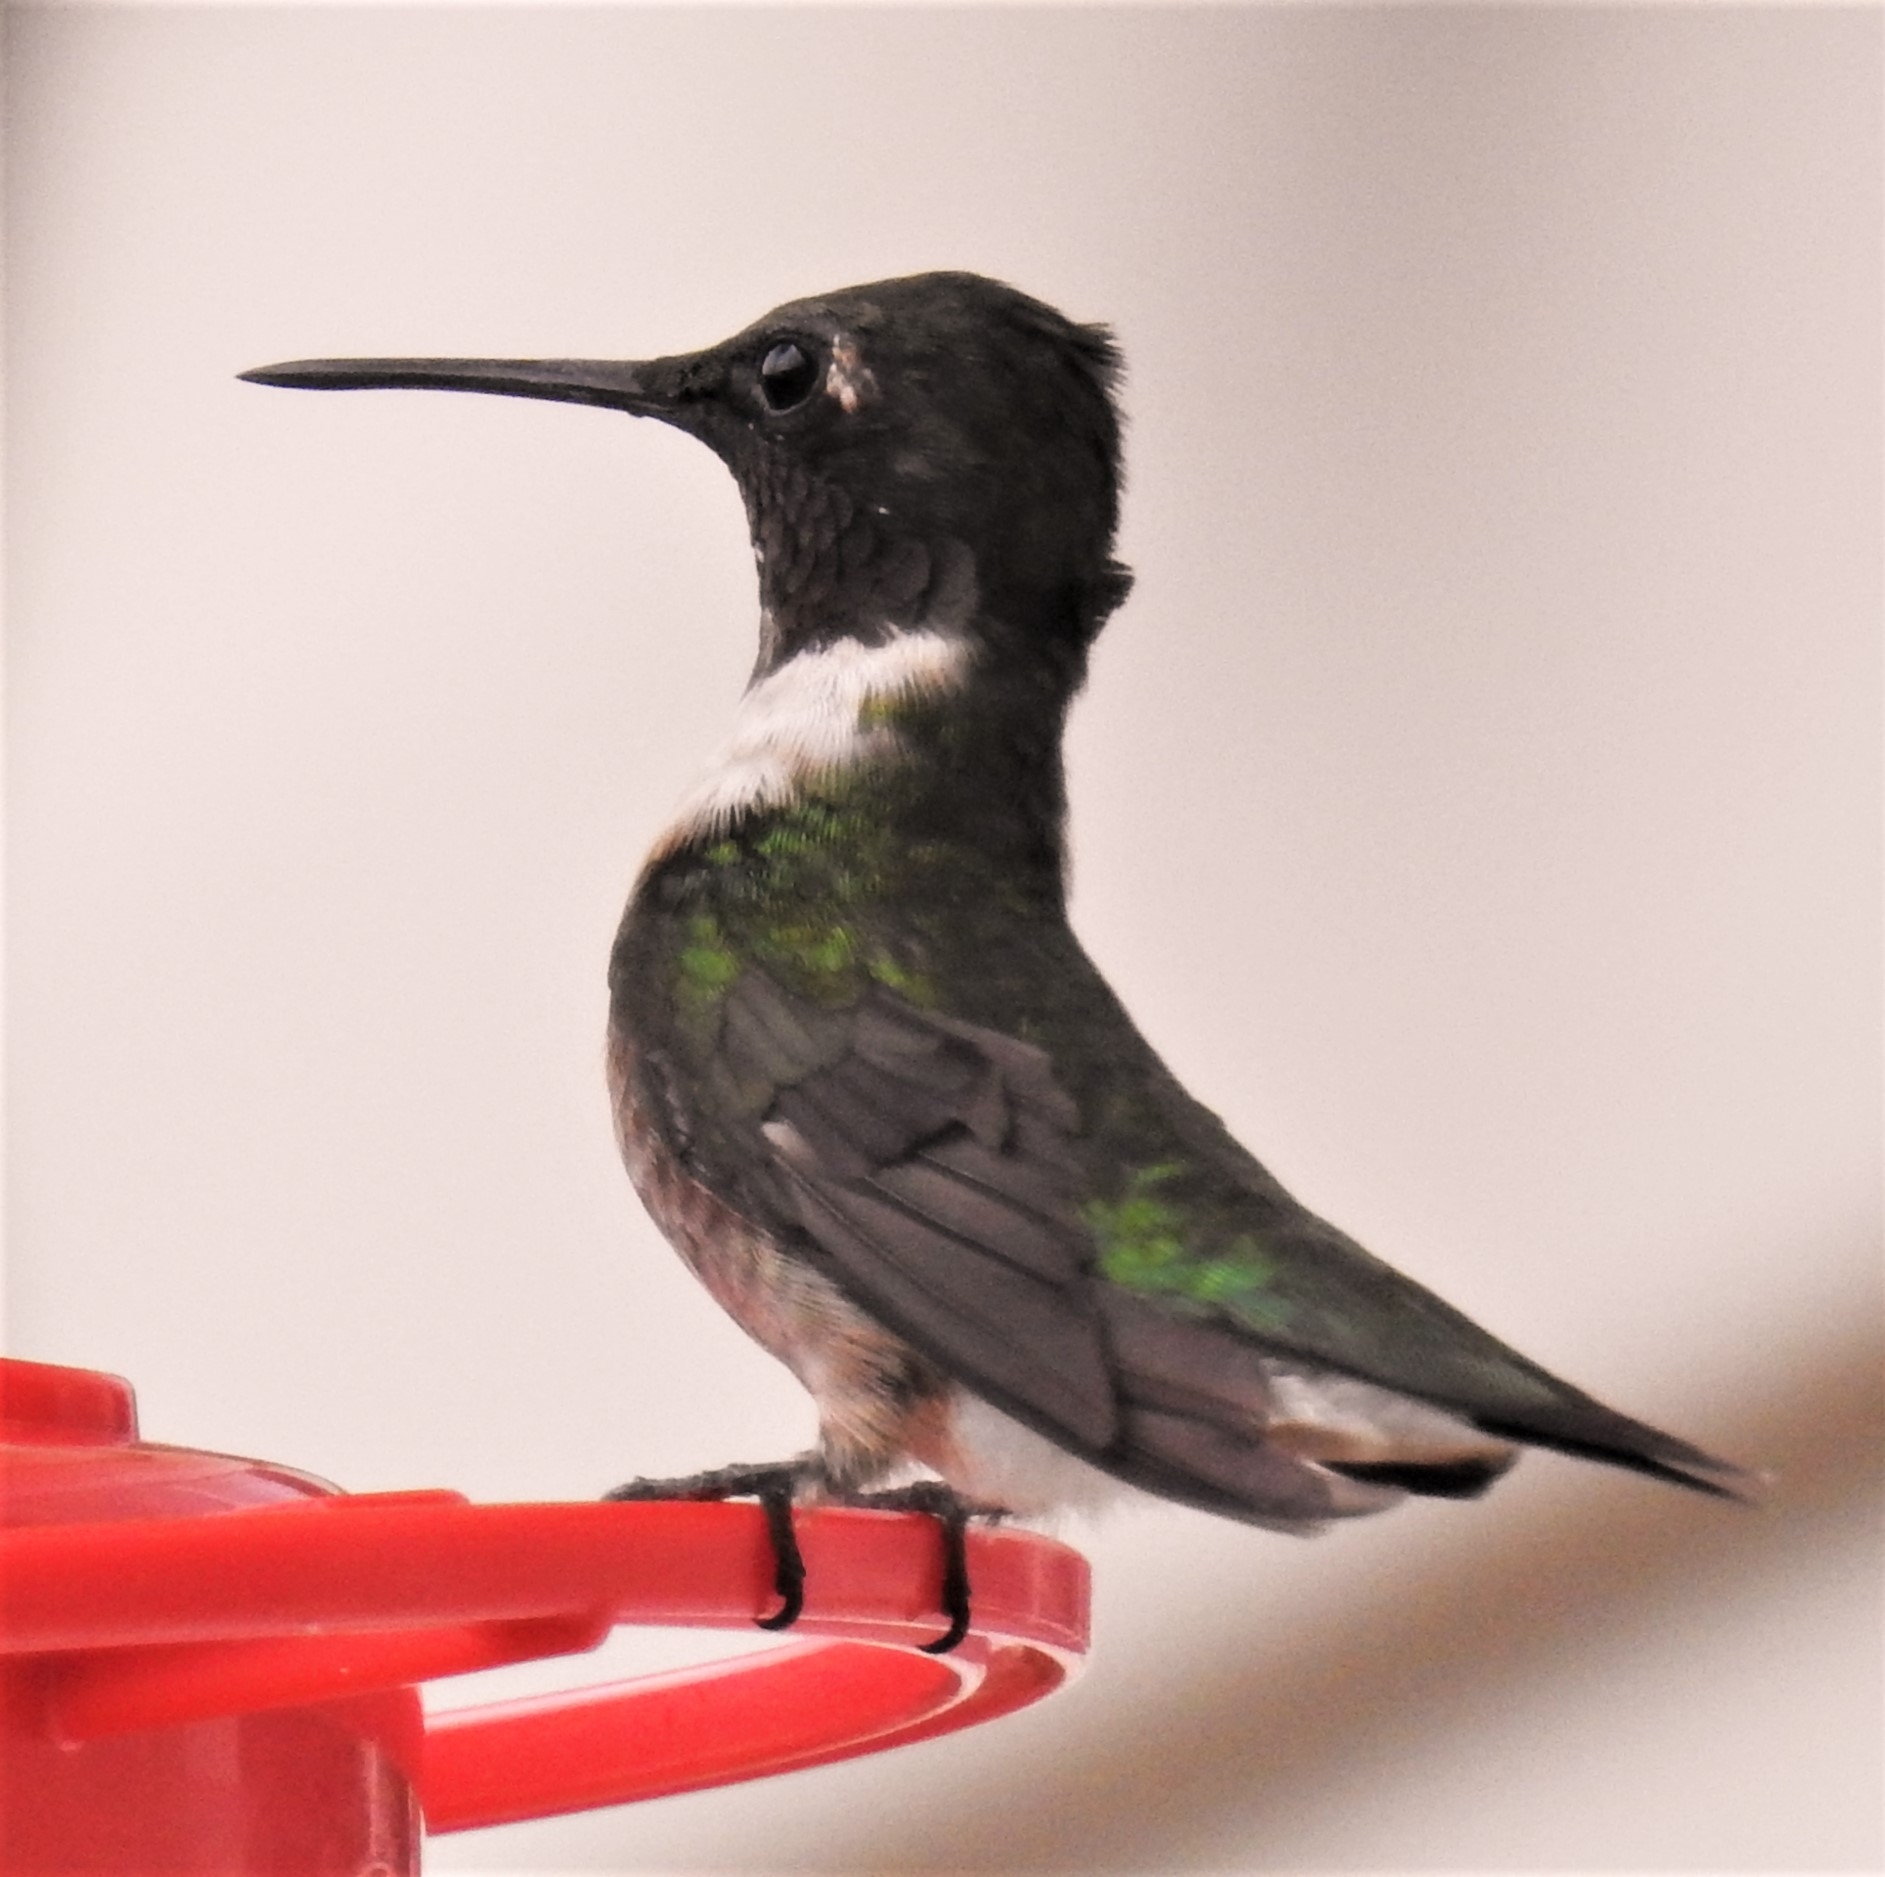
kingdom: Animalia
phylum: Chordata
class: Aves
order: Apodiformes
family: Trochilidae
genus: Archilochus
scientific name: Archilochus colubris
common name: Ruby-throated hummingbird
